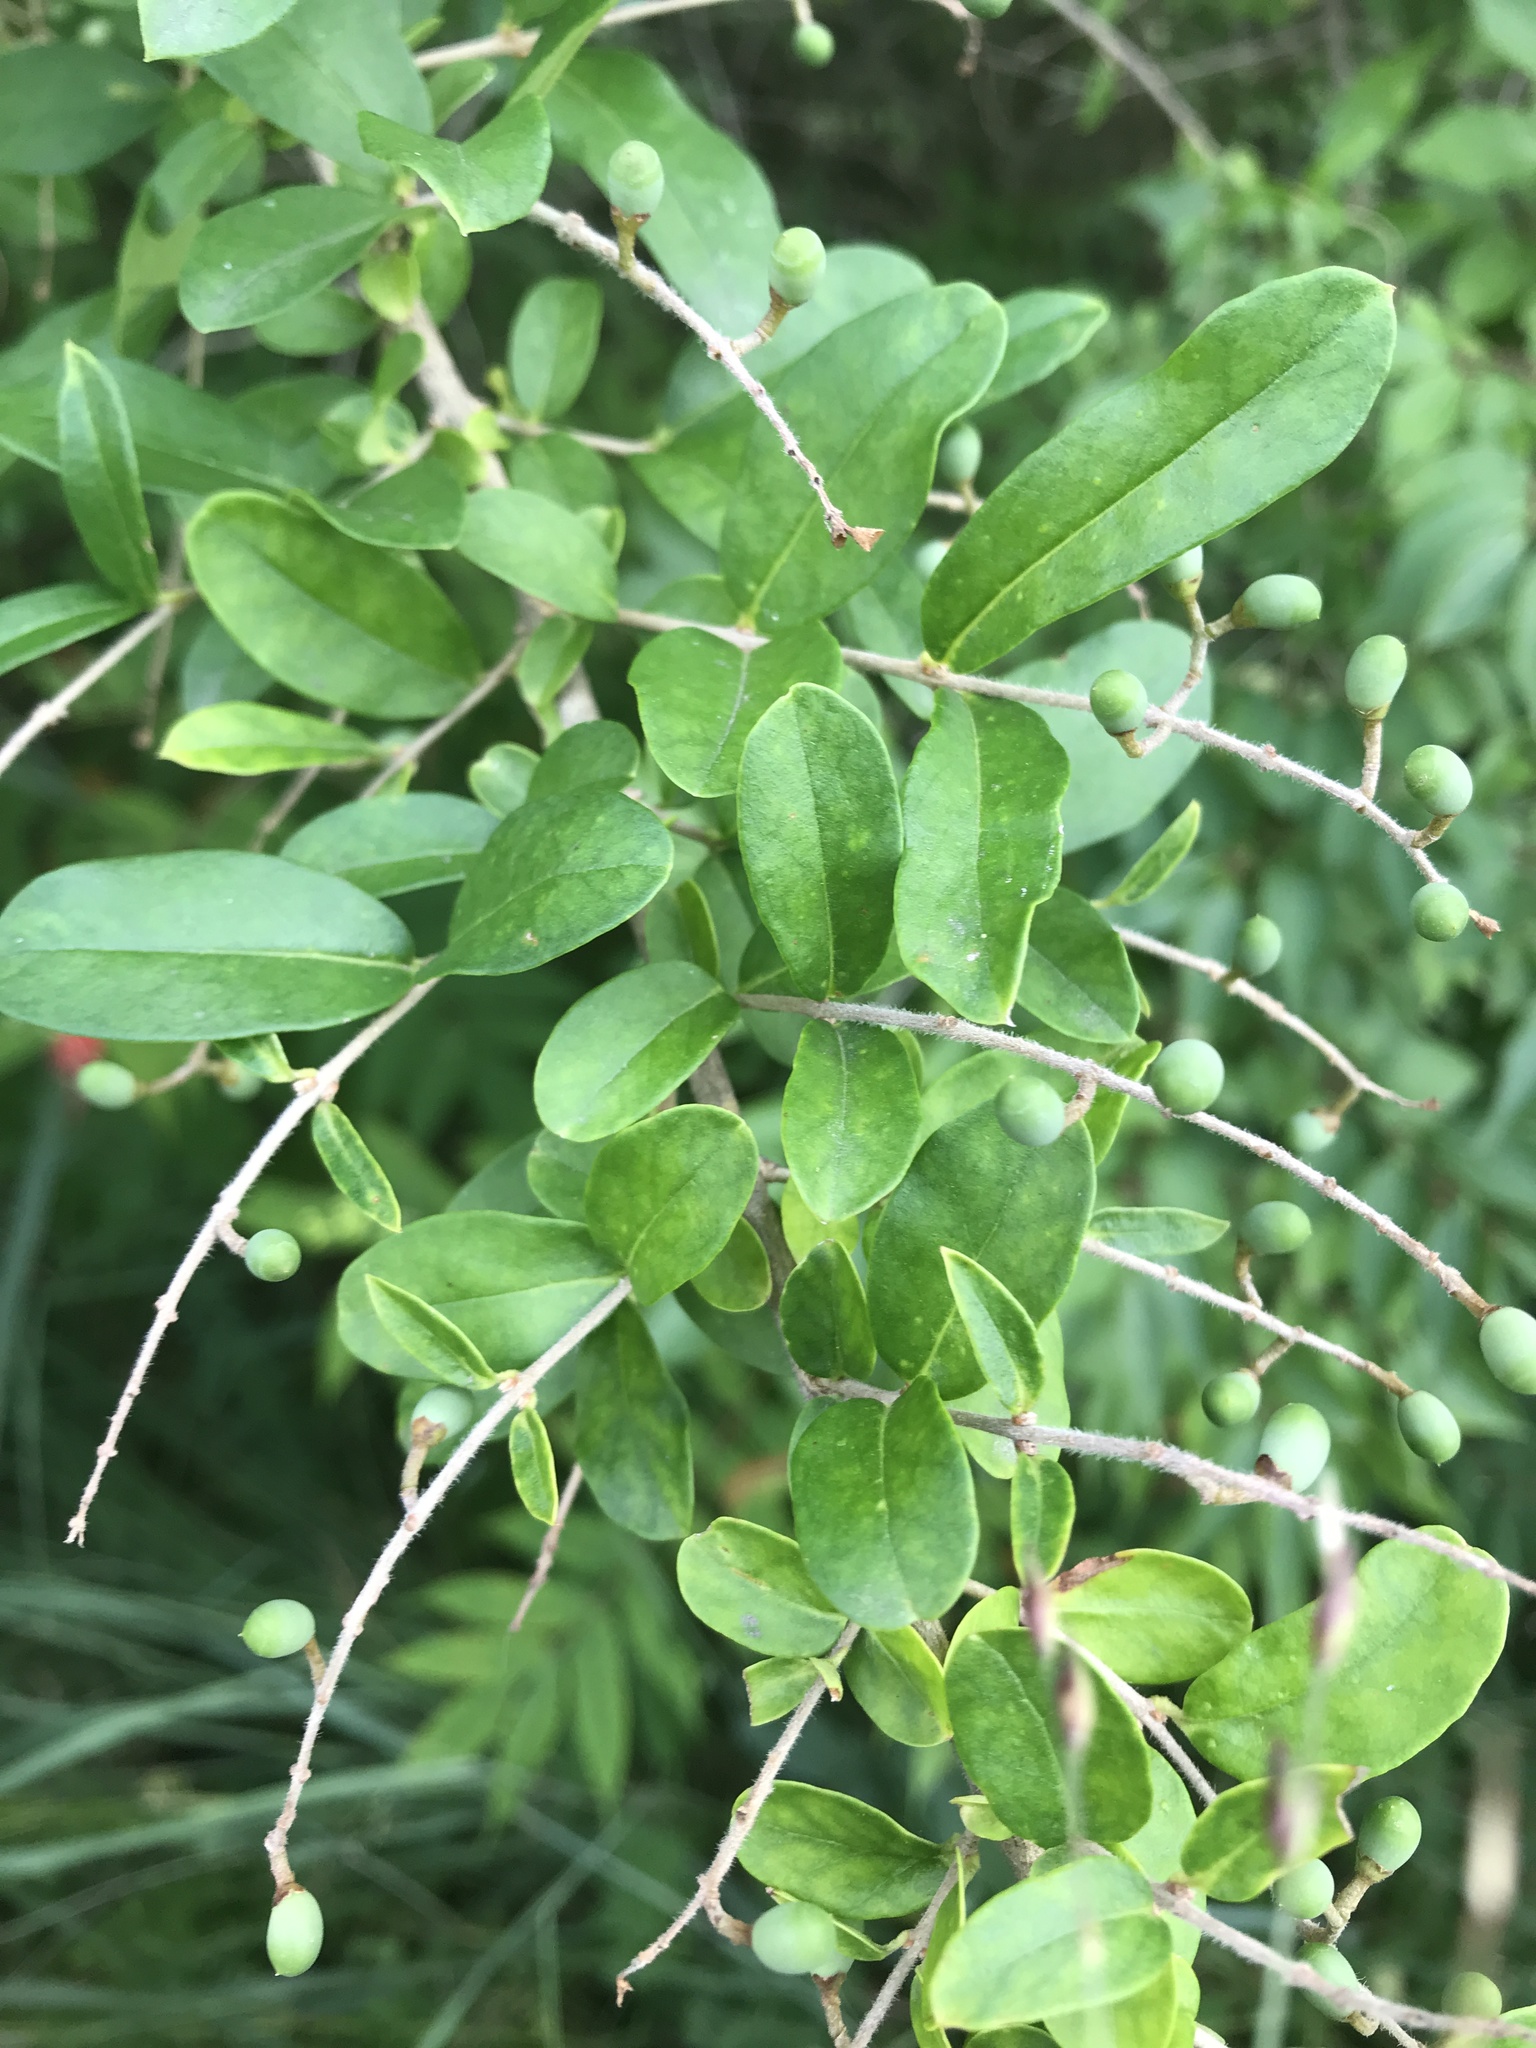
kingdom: Plantae
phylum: Tracheophyta
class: Magnoliopsida
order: Lamiales
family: Oleaceae
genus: Ligustrum
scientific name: Ligustrum obtusifolium
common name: Border privet
